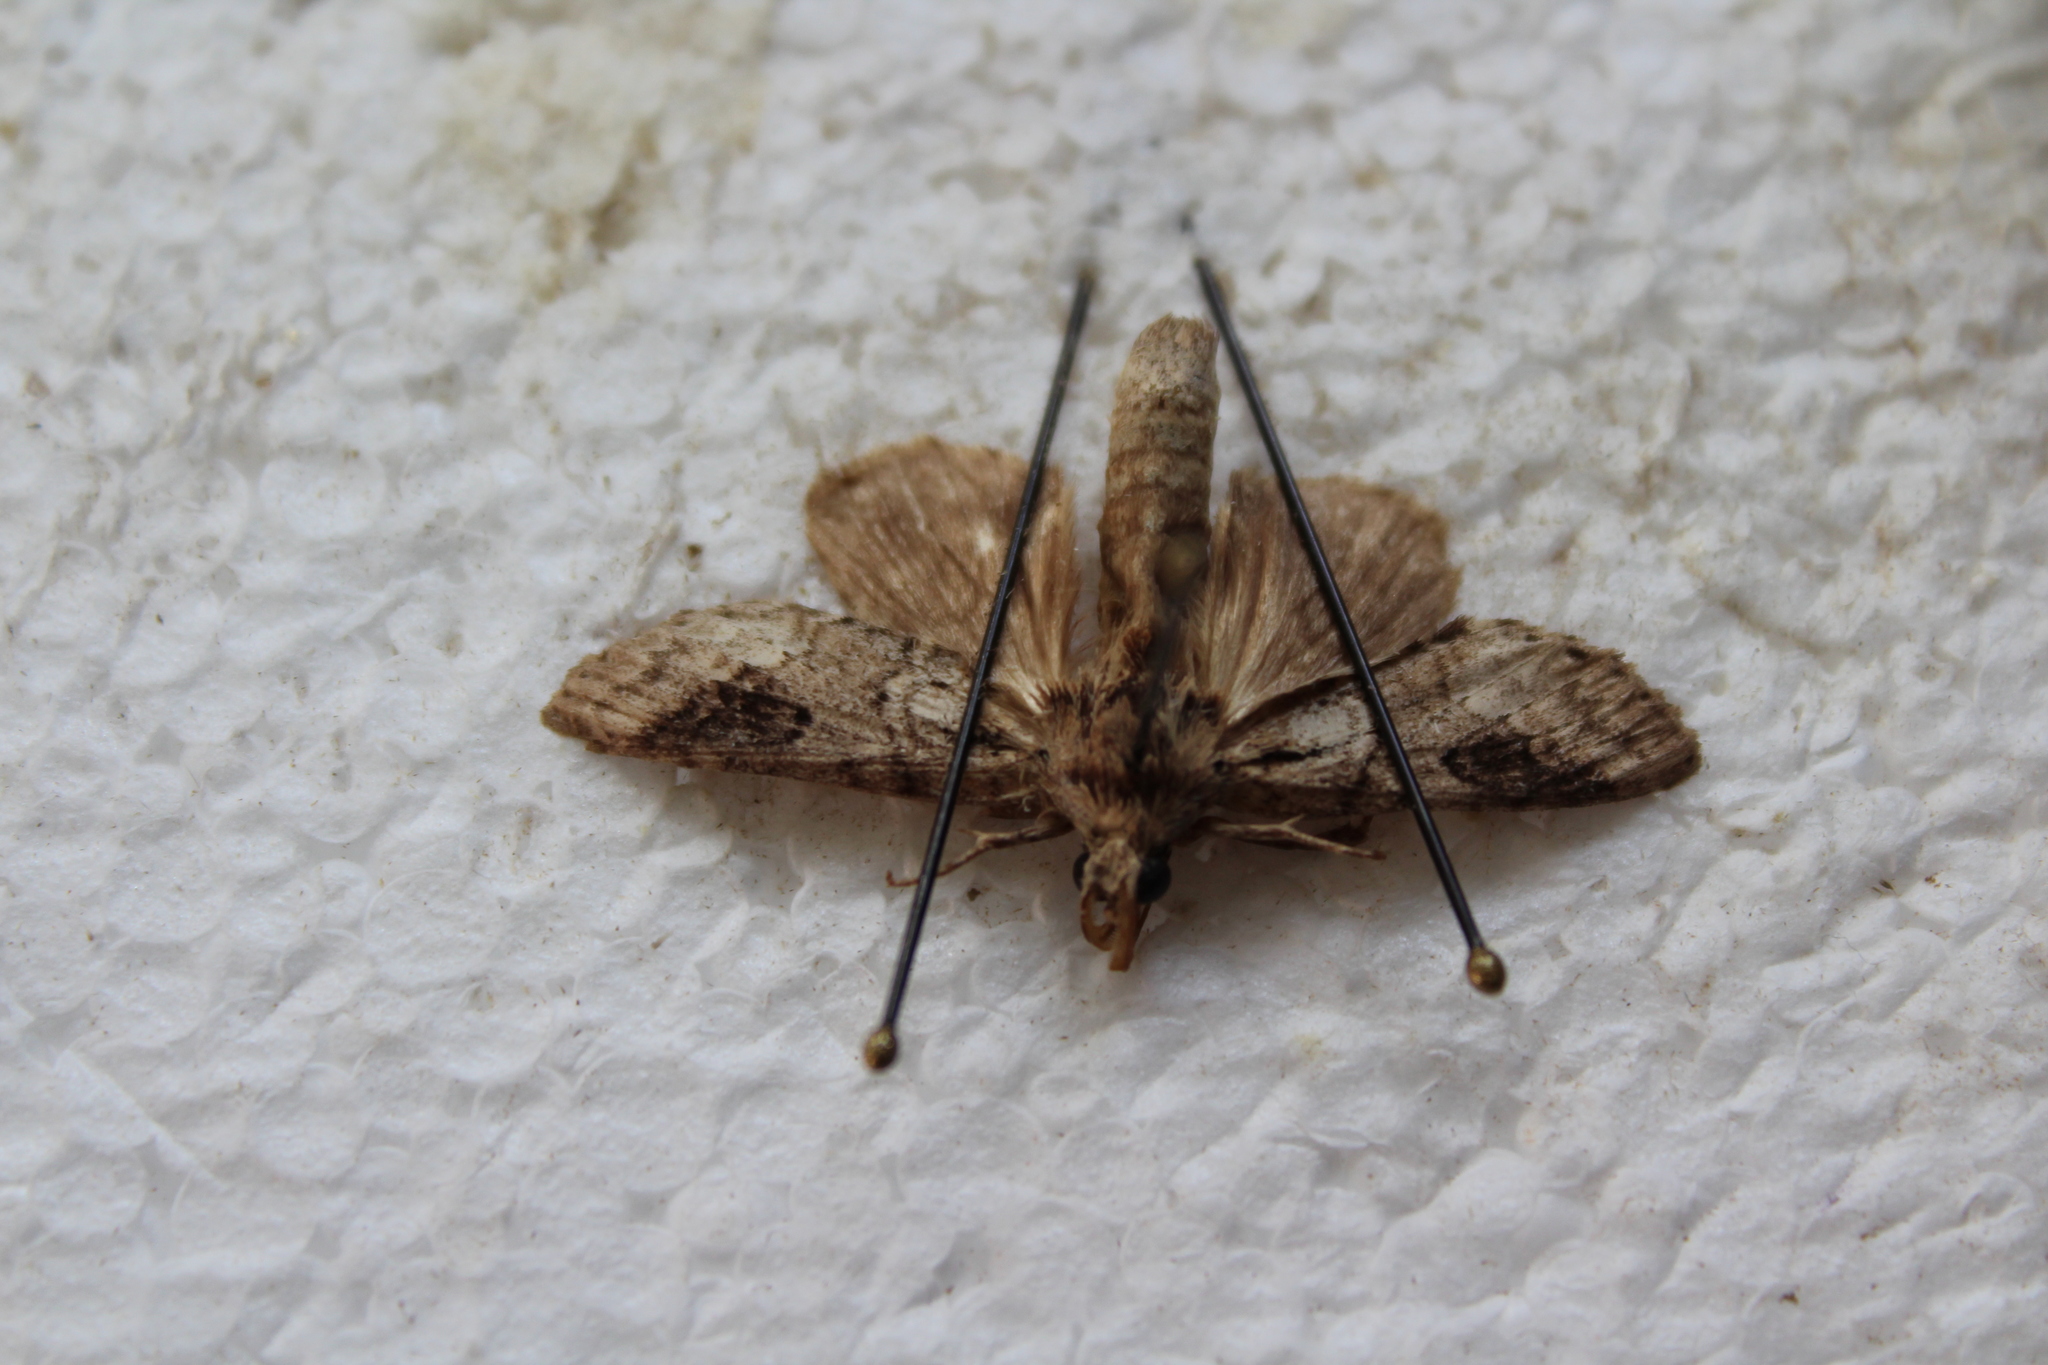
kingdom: Animalia
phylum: Arthropoda
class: Insecta
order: Lepidoptera
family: Notodontidae
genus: Lochmaeus
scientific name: Lochmaeus bilineata
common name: Double-lined prominent
